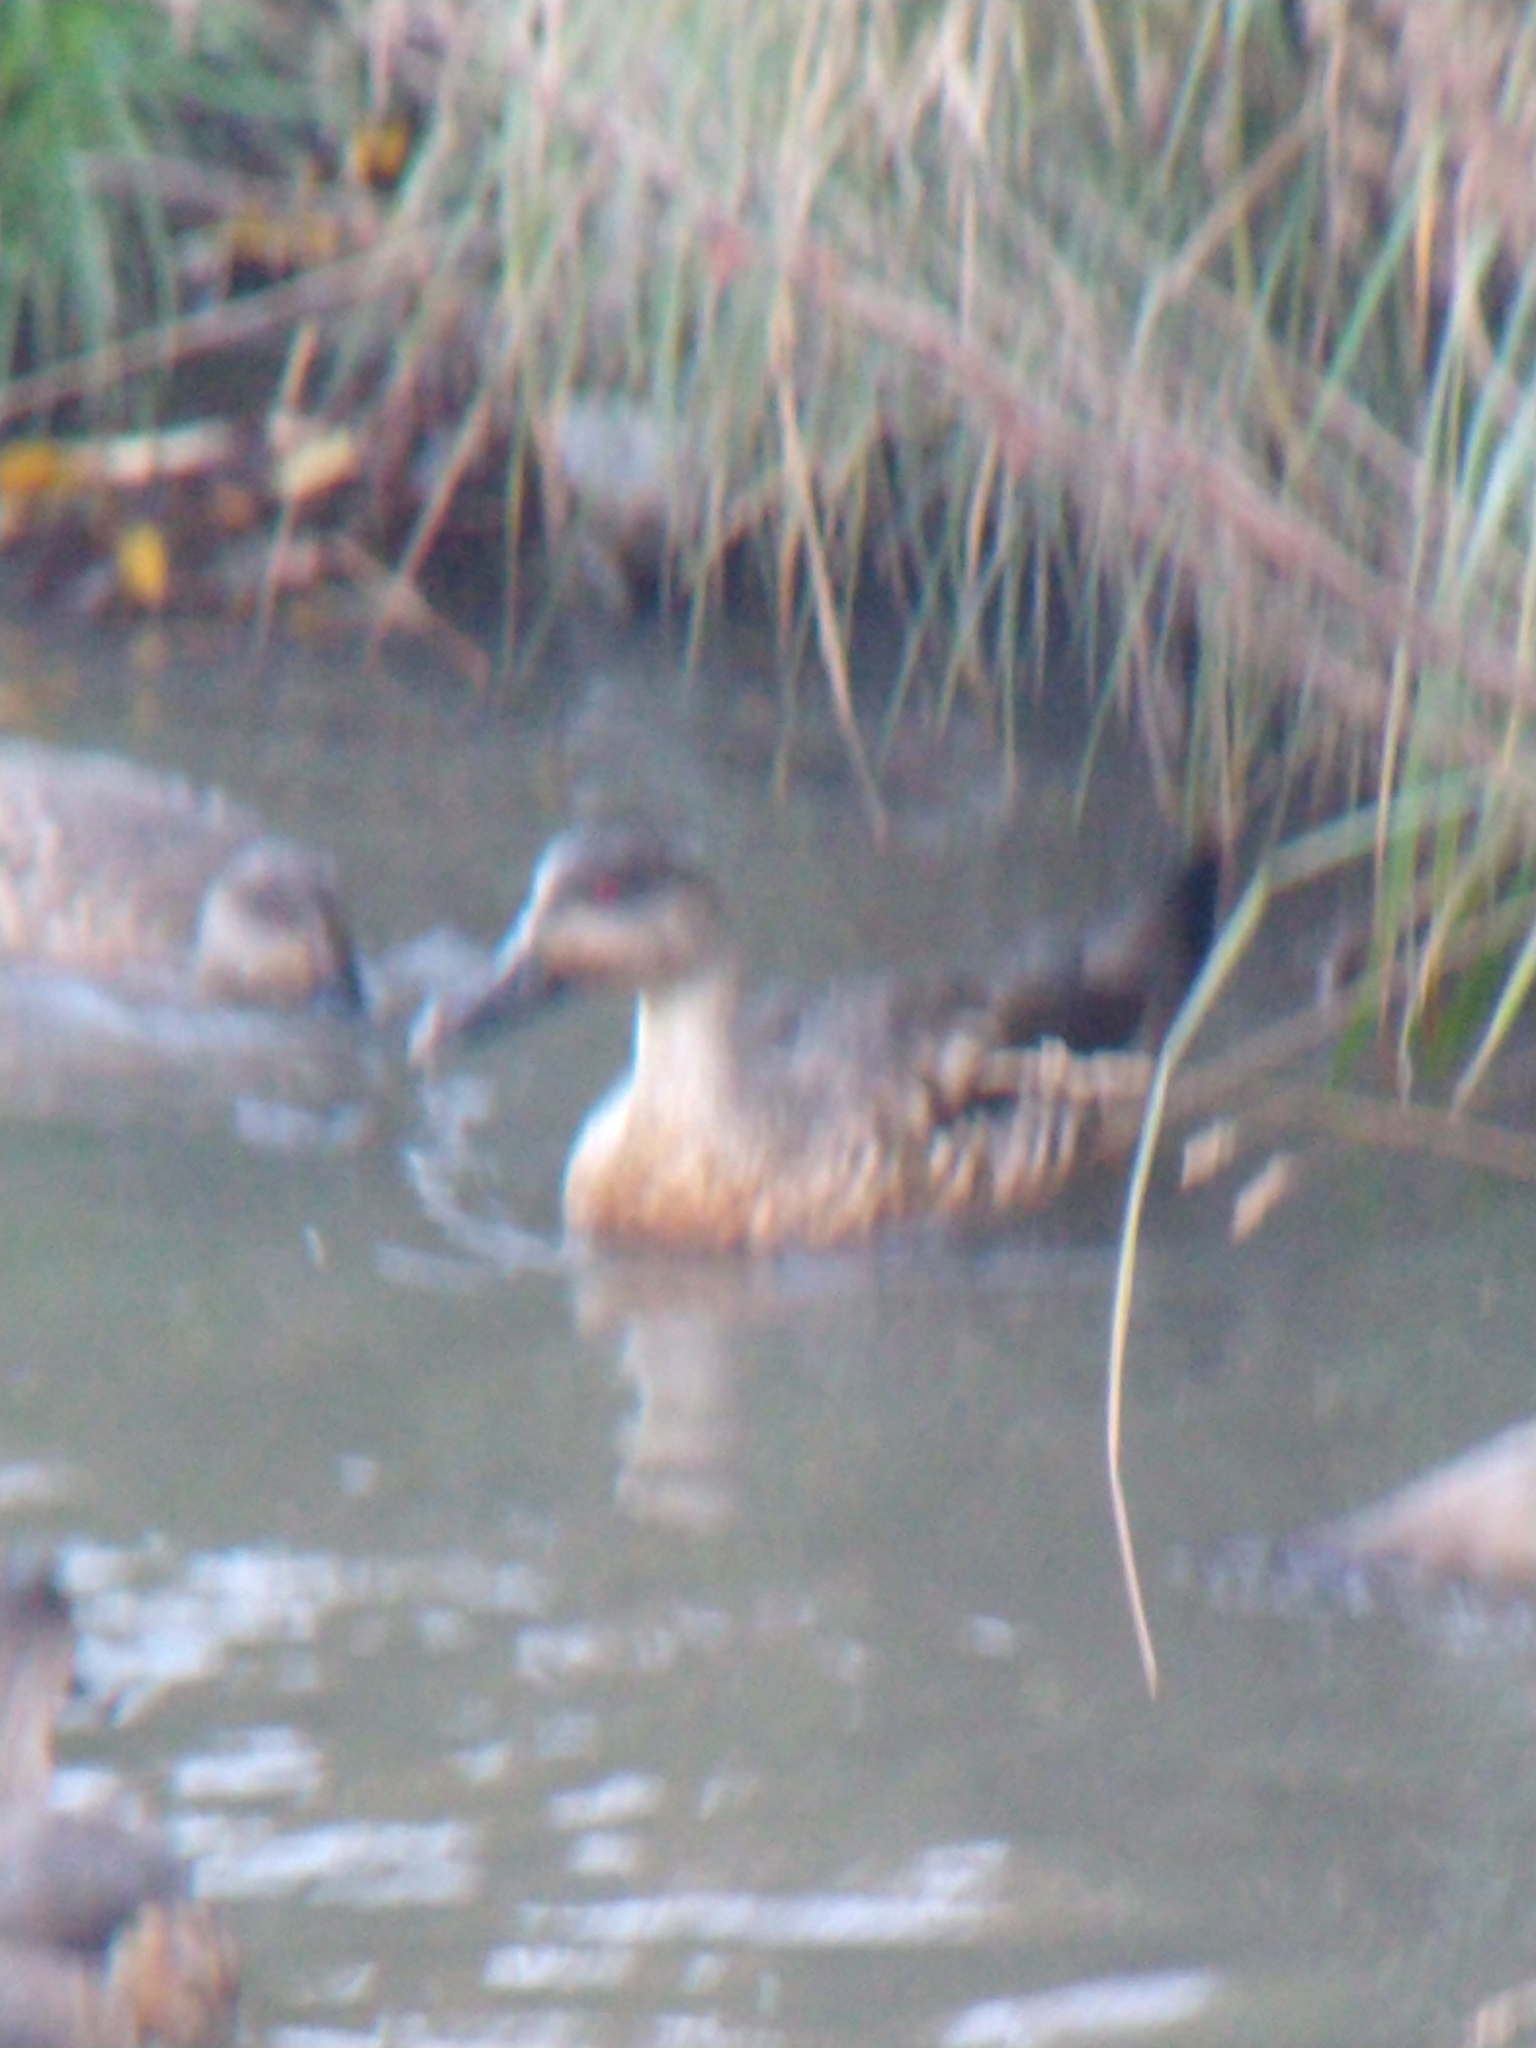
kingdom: Animalia
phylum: Chordata
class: Aves
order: Anseriformes
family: Anatidae
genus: Lophonetta
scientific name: Lophonetta specularioides
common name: Crested duck
